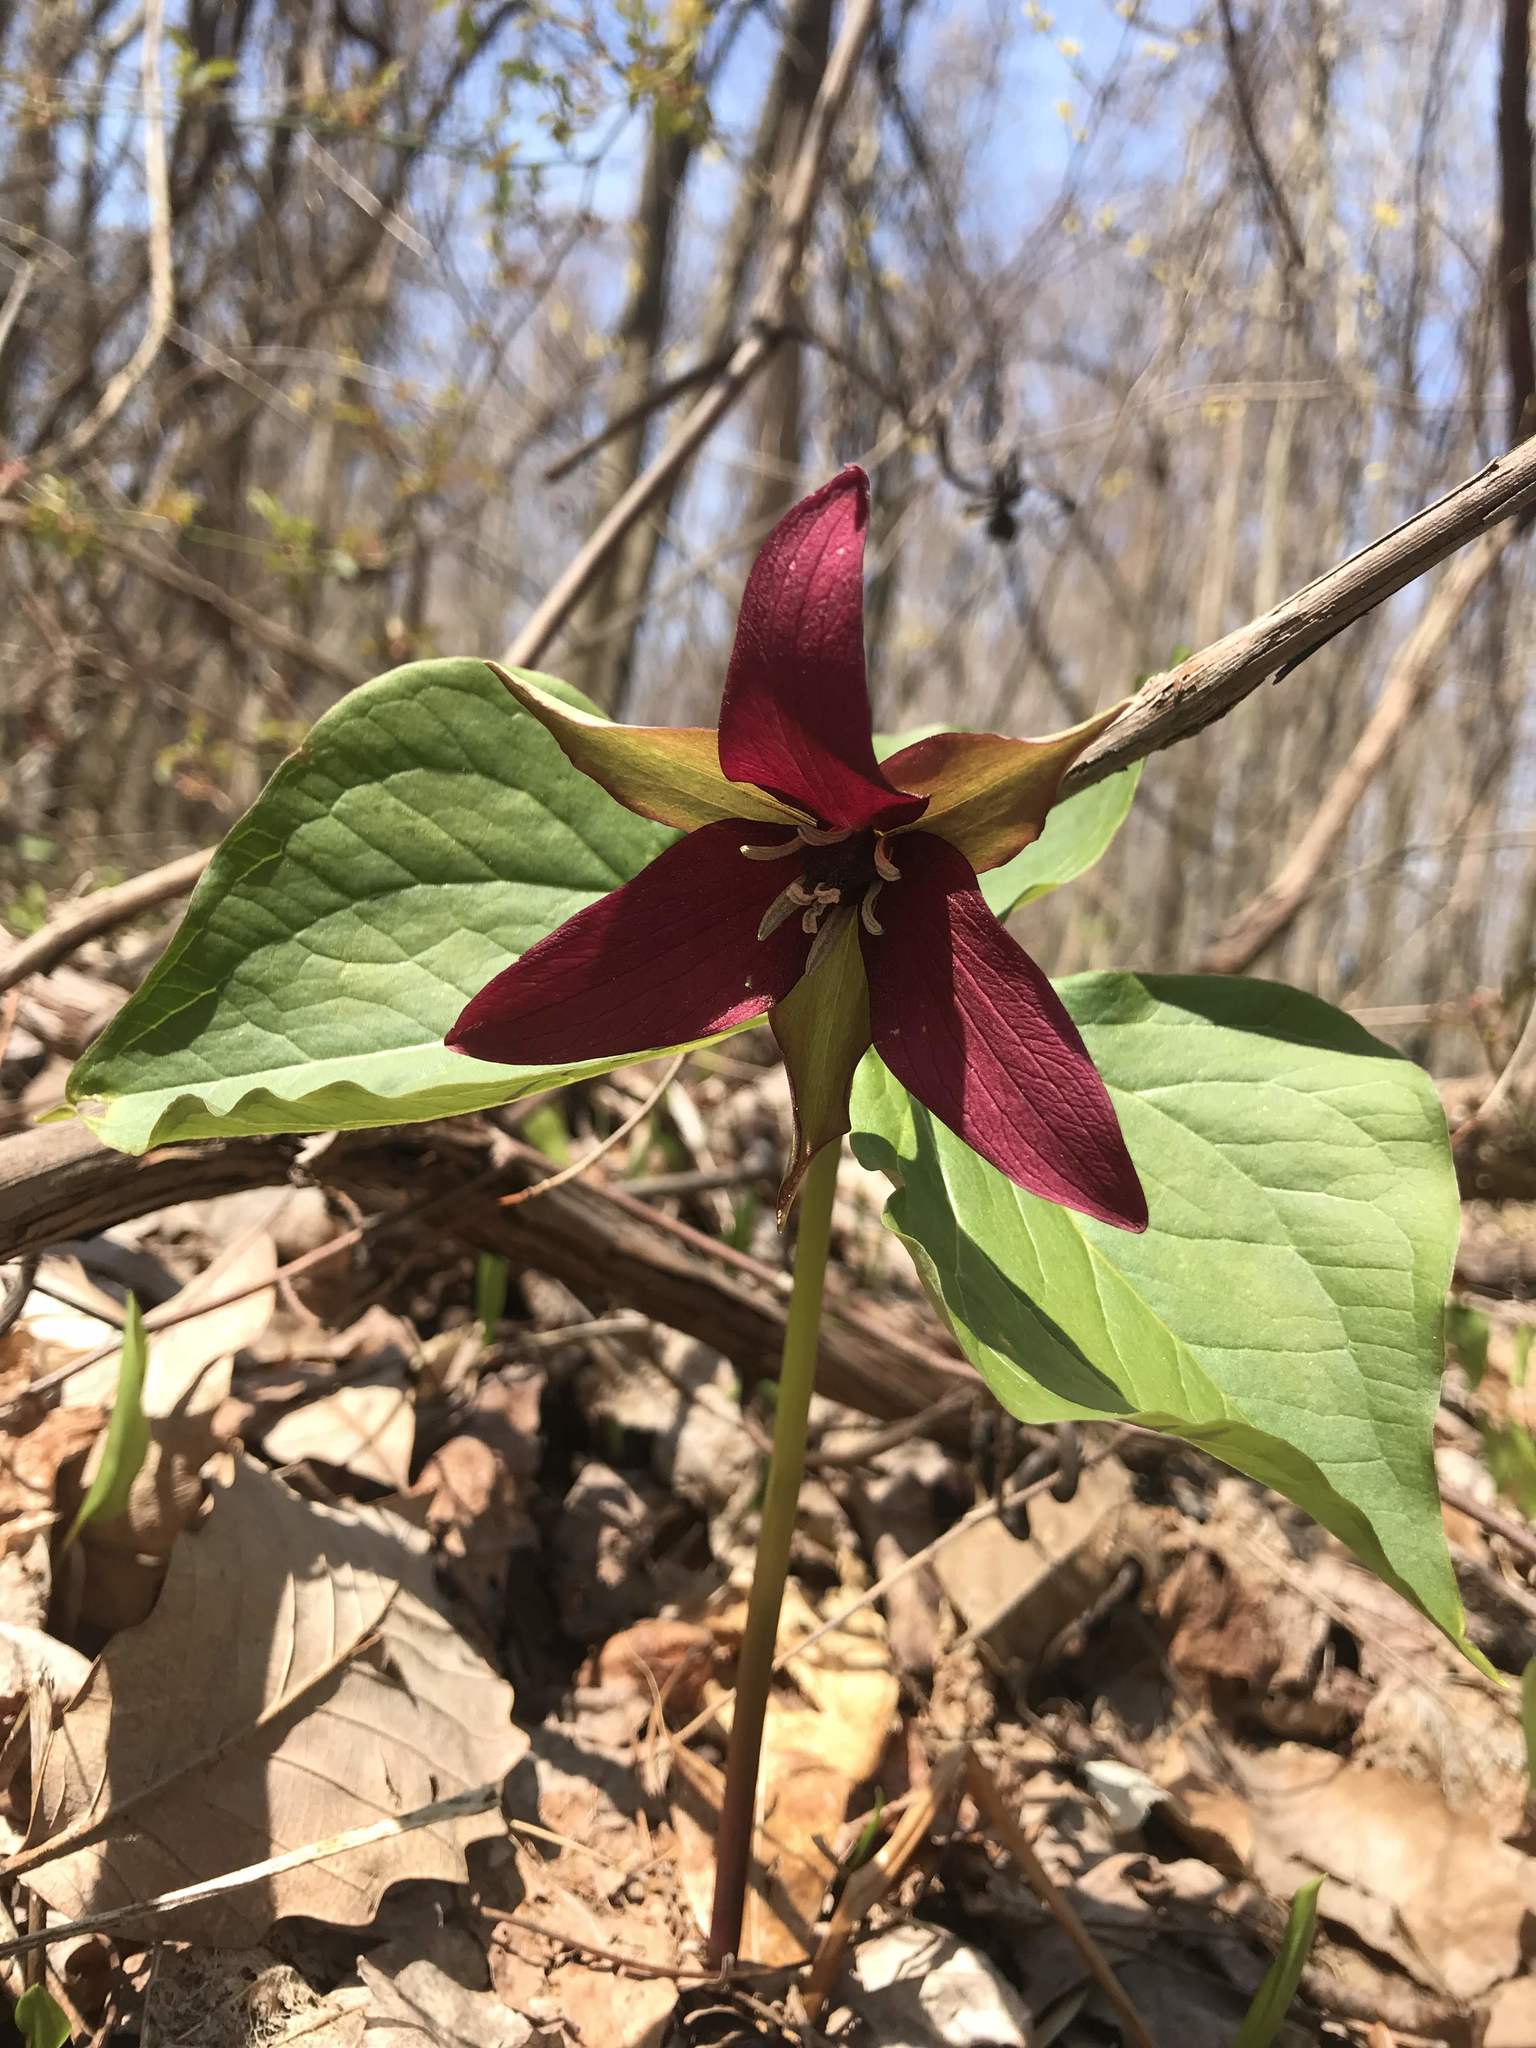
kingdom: Plantae
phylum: Tracheophyta
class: Liliopsida
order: Liliales
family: Melanthiaceae
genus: Trillium
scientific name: Trillium erectum
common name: Purple trillium
